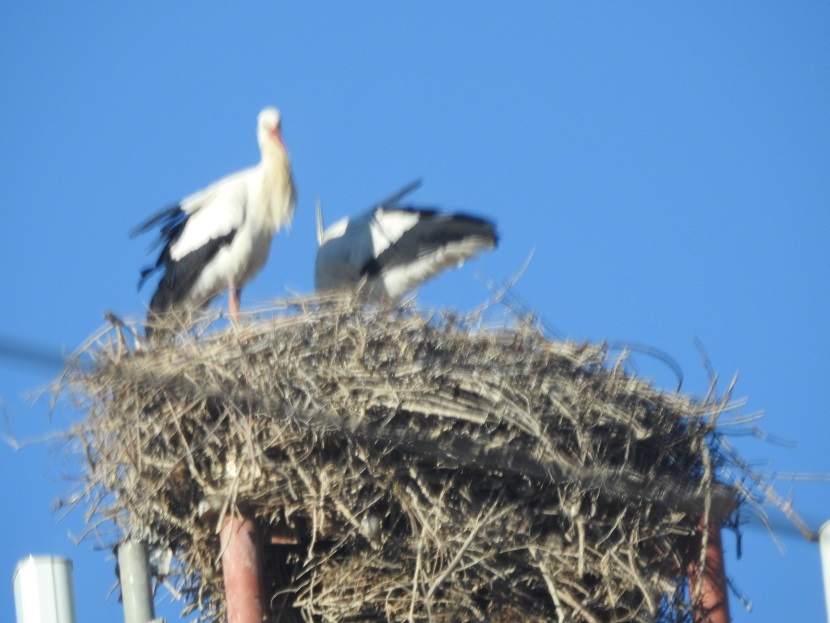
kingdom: Animalia
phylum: Chordata
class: Aves
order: Ciconiiformes
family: Ciconiidae
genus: Ciconia
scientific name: Ciconia ciconia
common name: White stork
